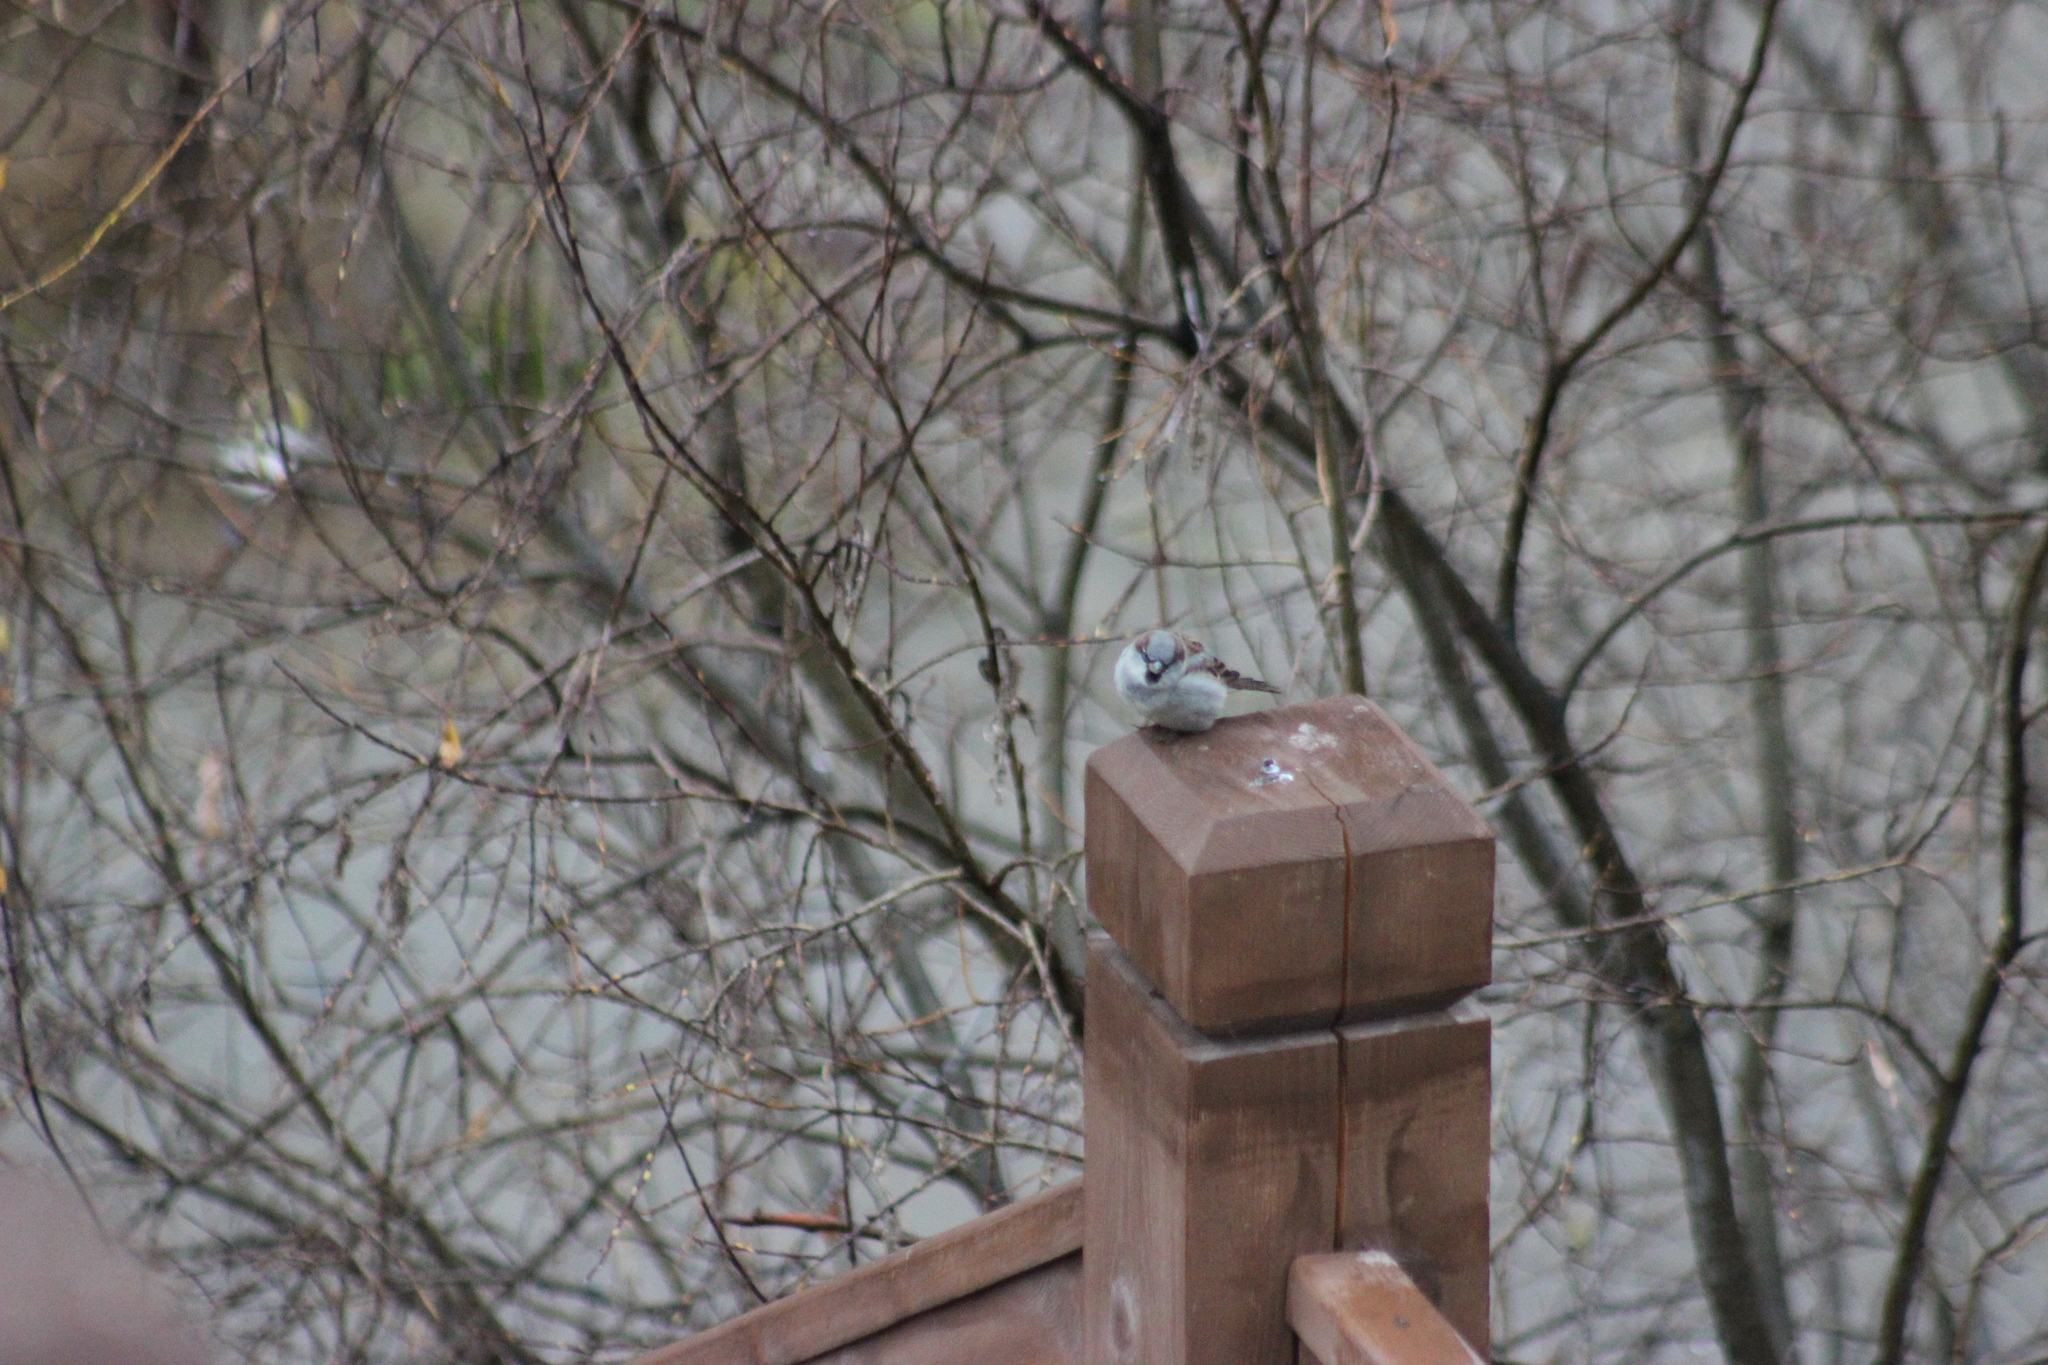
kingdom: Animalia
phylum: Chordata
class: Aves
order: Passeriformes
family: Passeridae
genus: Passer
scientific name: Passer domesticus
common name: House sparrow
